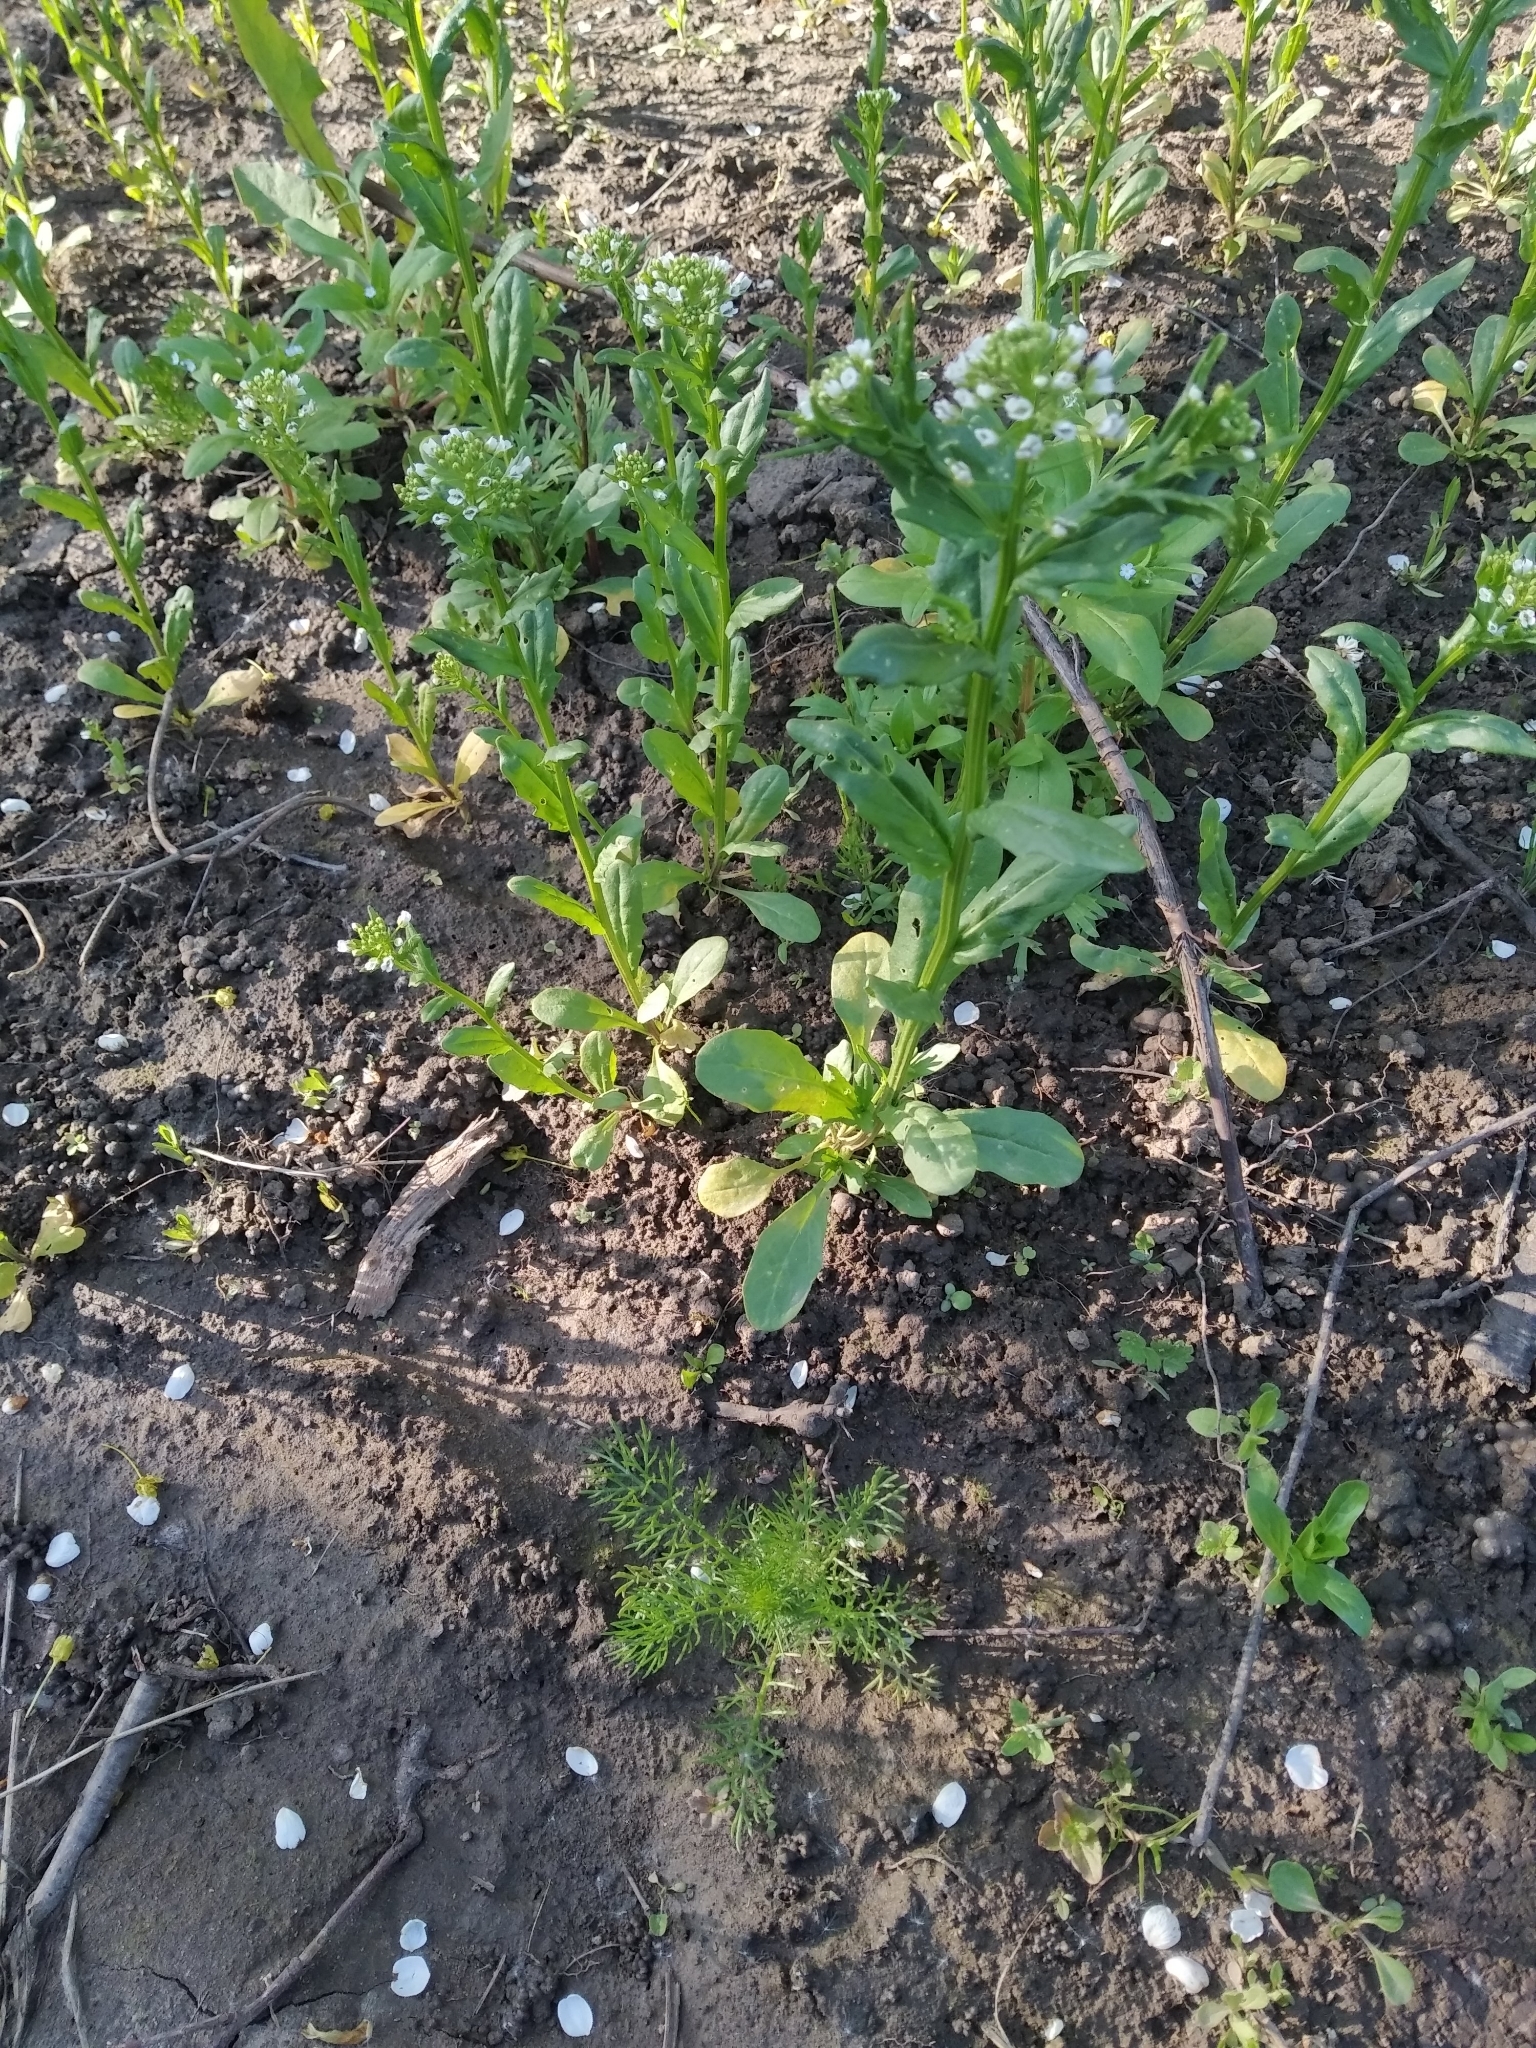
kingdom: Plantae
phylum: Tracheophyta
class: Magnoliopsida
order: Brassicales
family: Brassicaceae
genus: Thlaspi
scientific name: Thlaspi arvense
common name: Field pennycress
